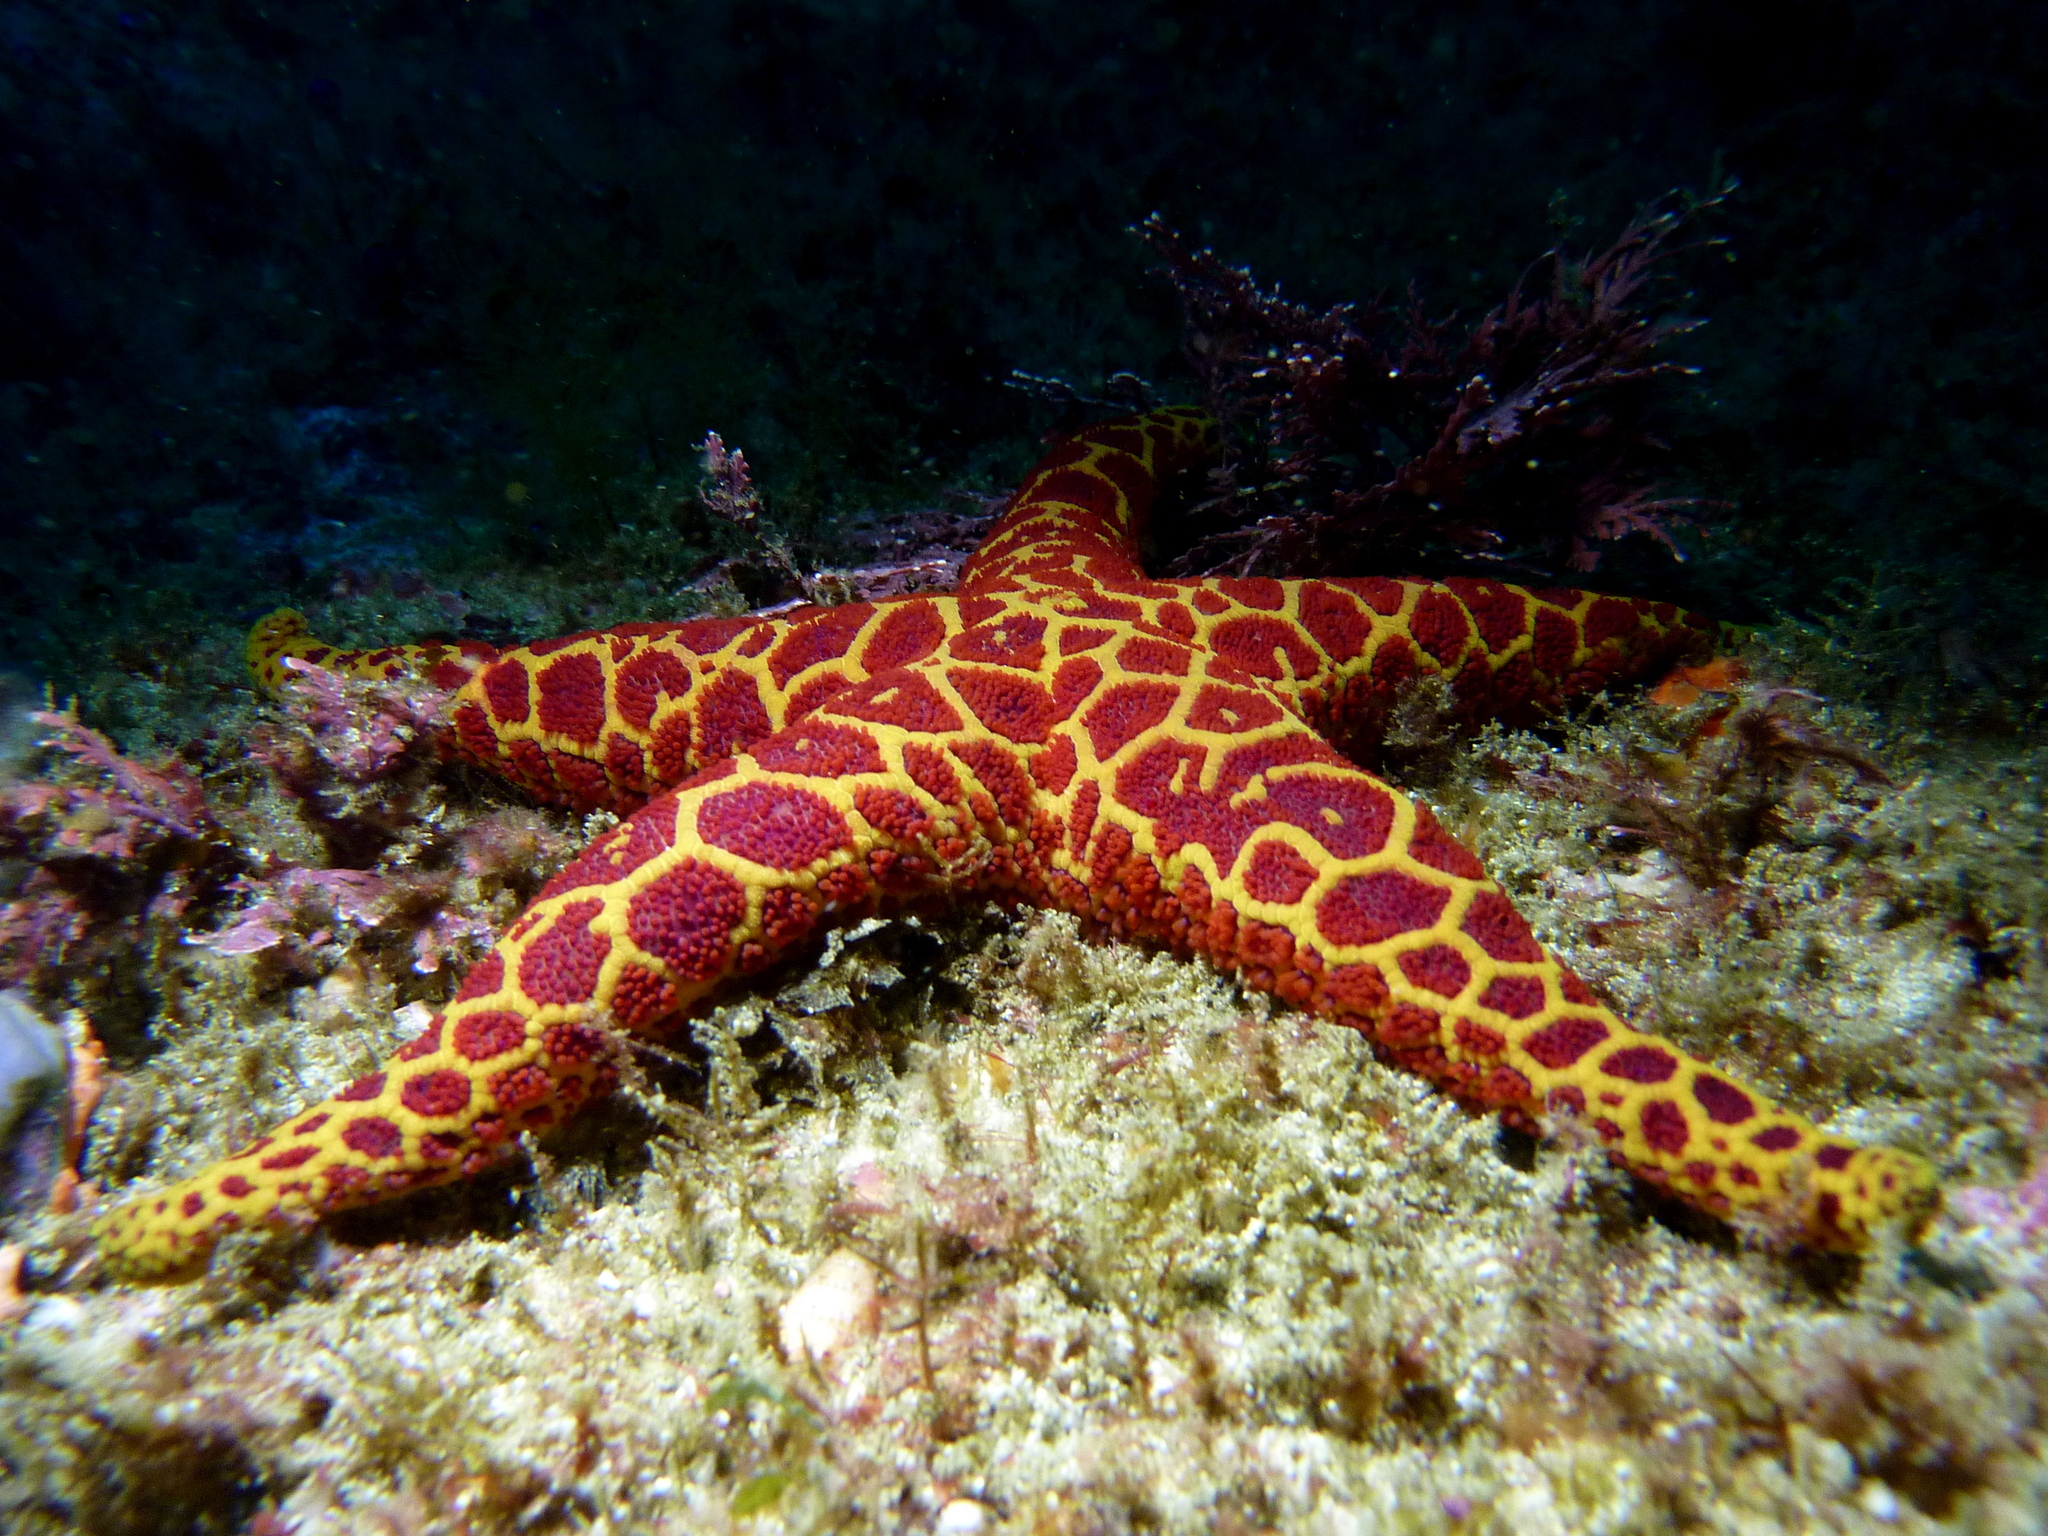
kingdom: Animalia
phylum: Echinodermata
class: Asteroidea
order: Spinulosida
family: Echinasteridae
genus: Plectaster
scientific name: Plectaster decanus
